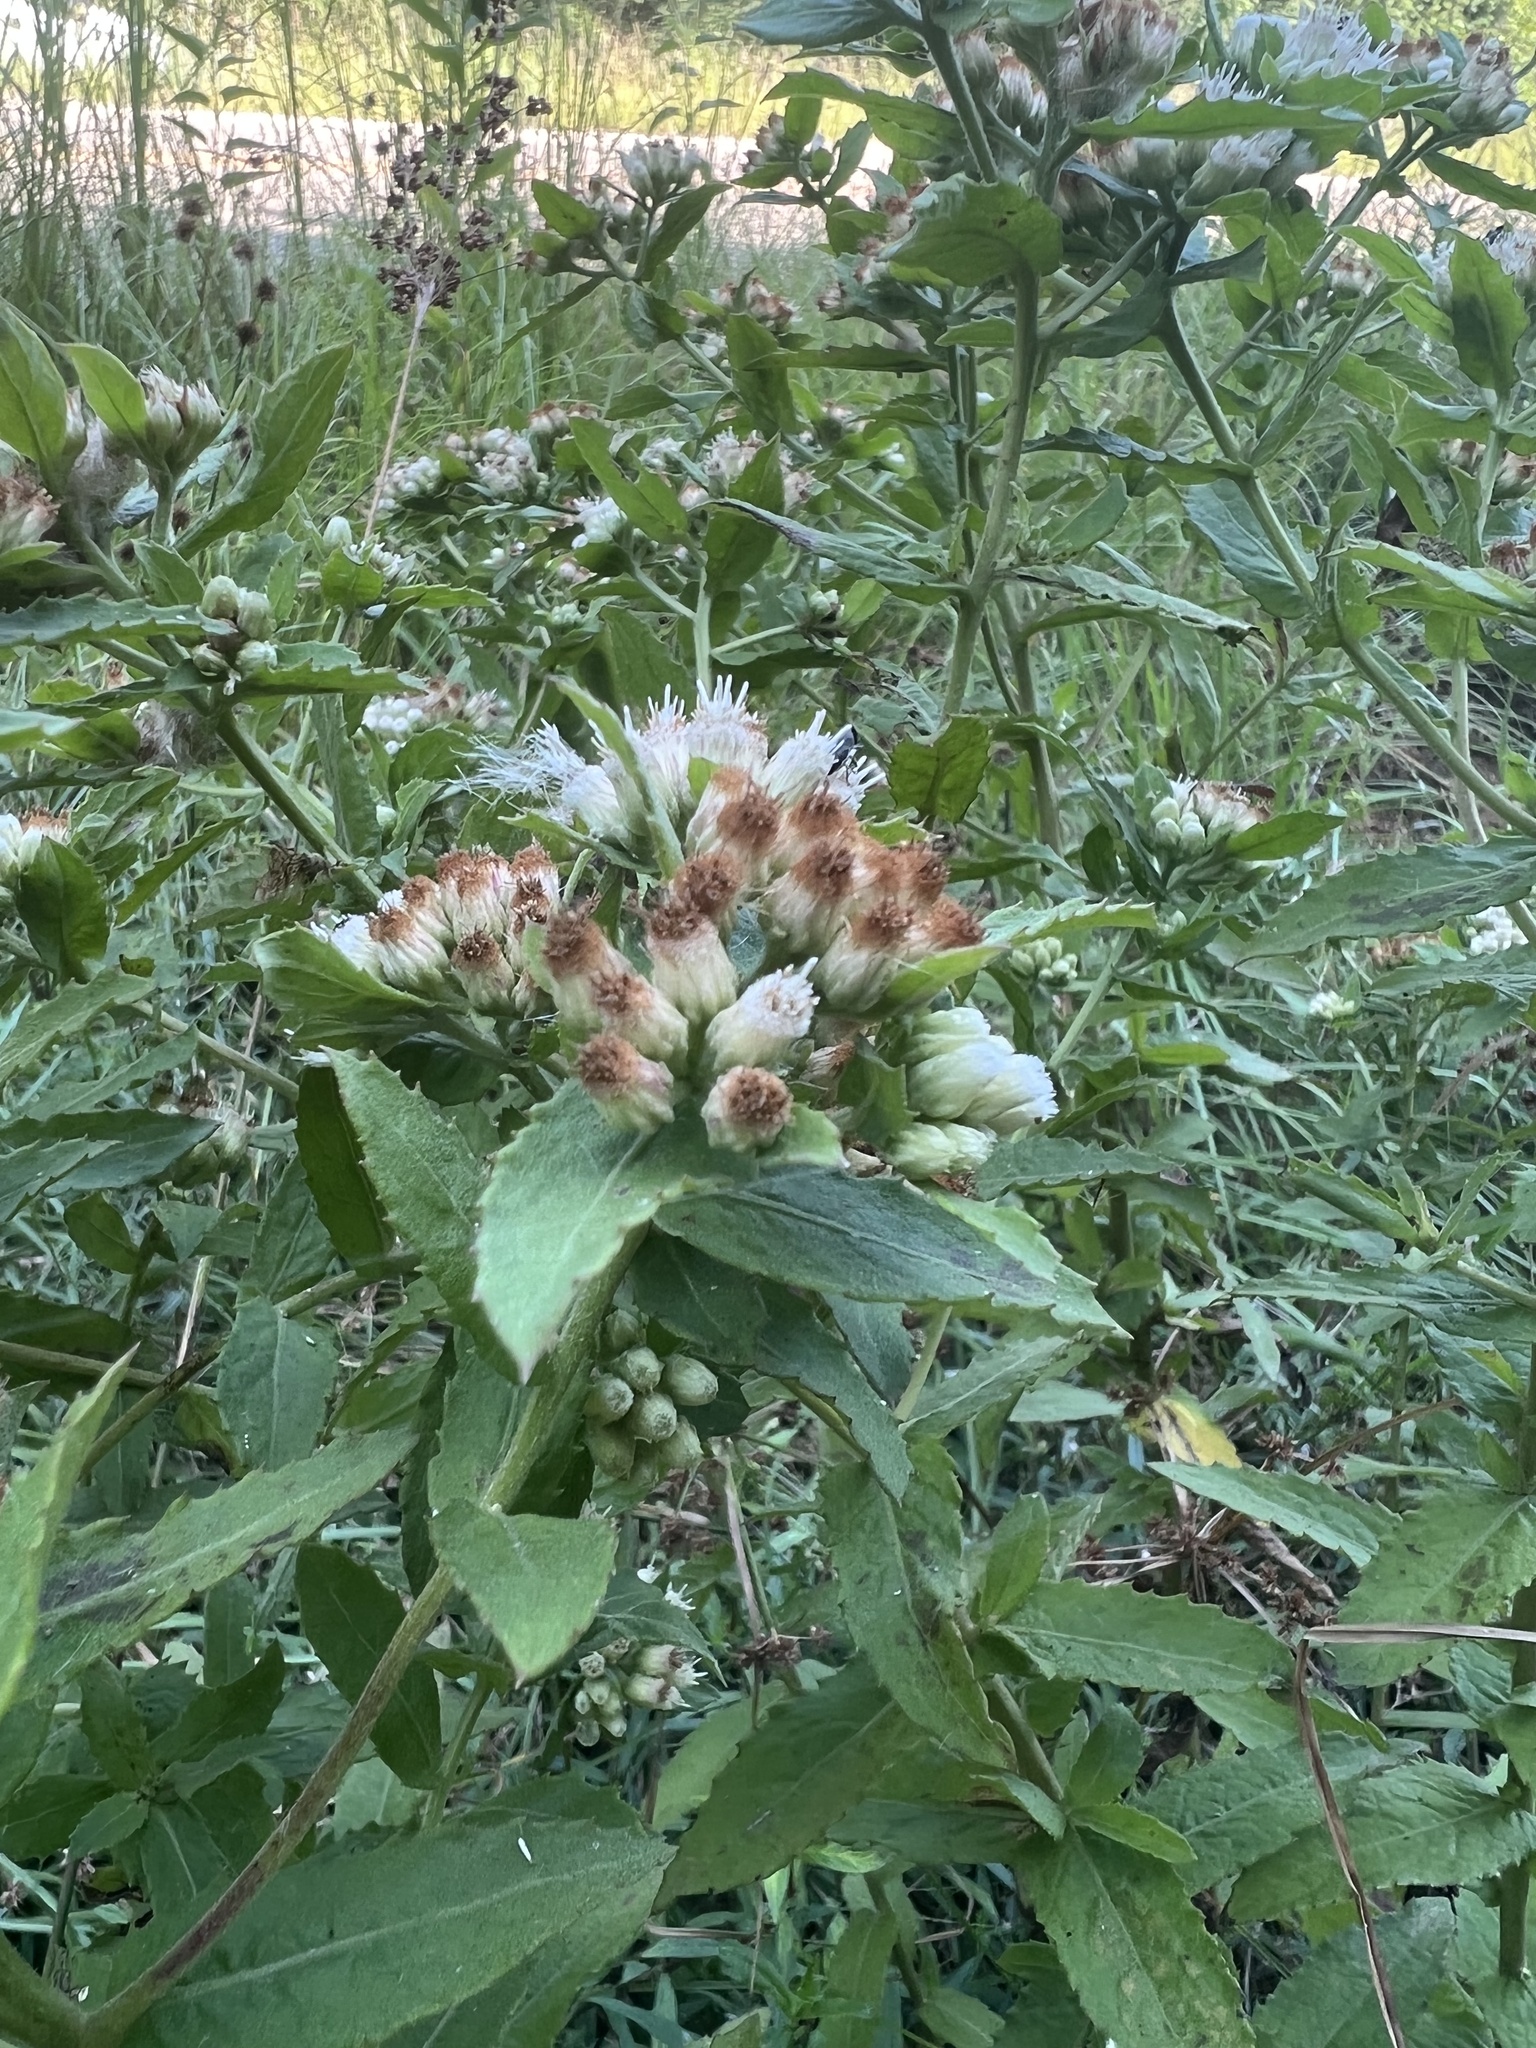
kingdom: Plantae
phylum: Tracheophyta
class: Magnoliopsida
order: Asterales
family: Asteraceae
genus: Pluchea
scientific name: Pluchea foetida
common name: Stinking camphorweed
